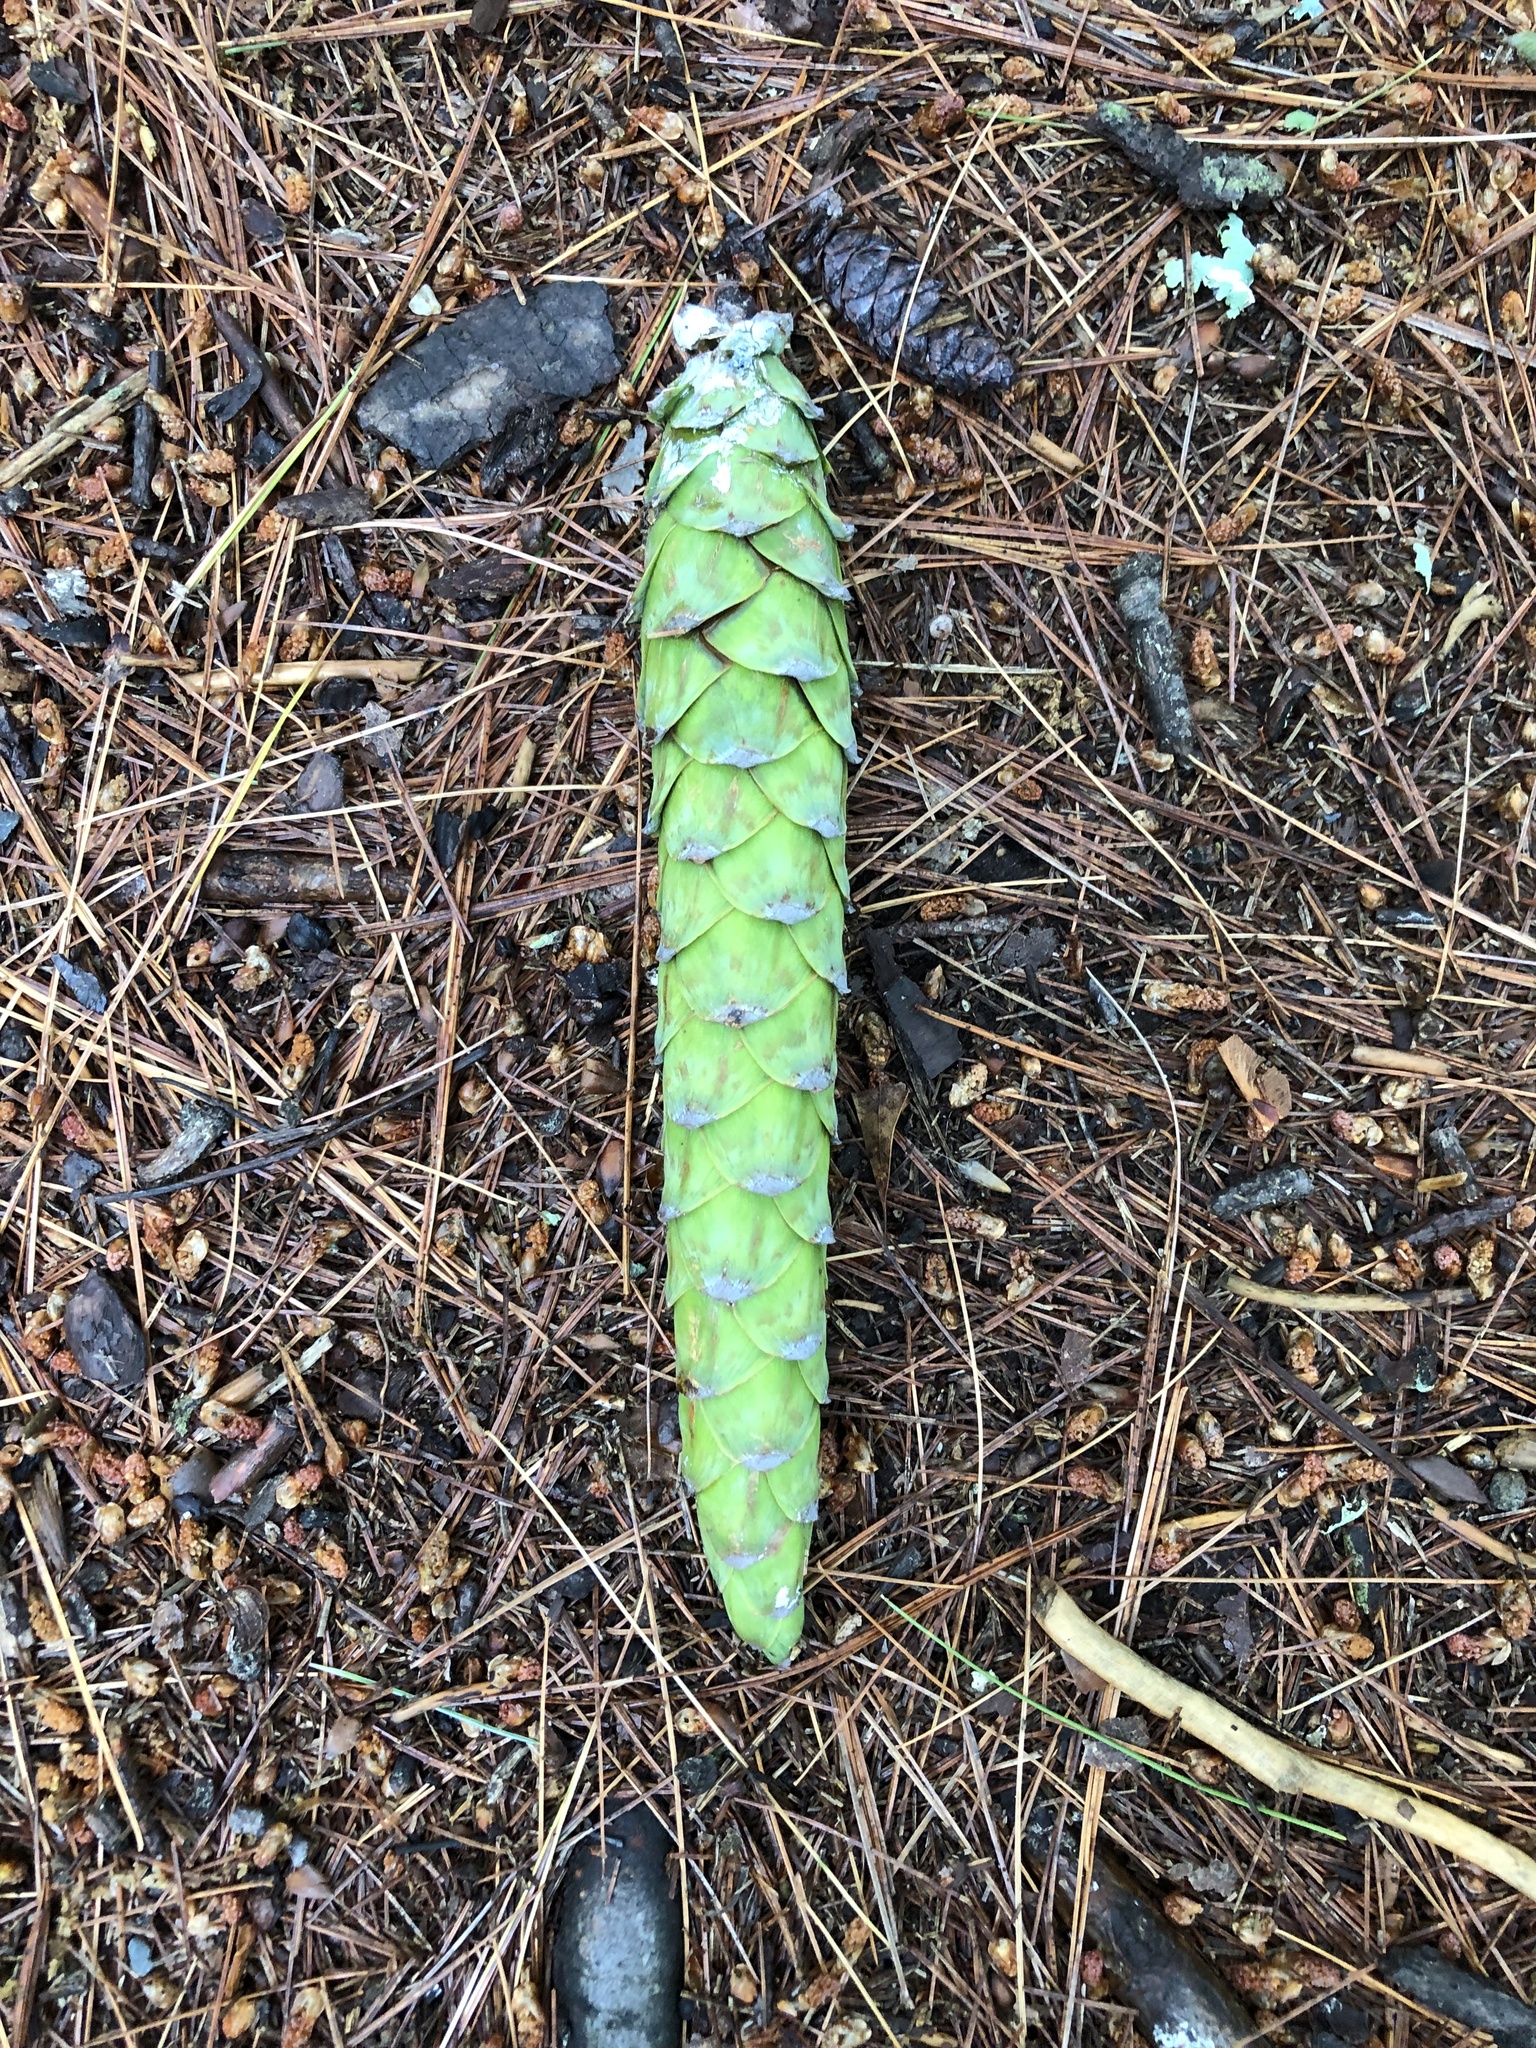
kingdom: Plantae
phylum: Tracheophyta
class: Pinopsida
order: Pinales
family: Pinaceae
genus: Pinus
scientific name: Pinus strobus
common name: Weymouth pine
